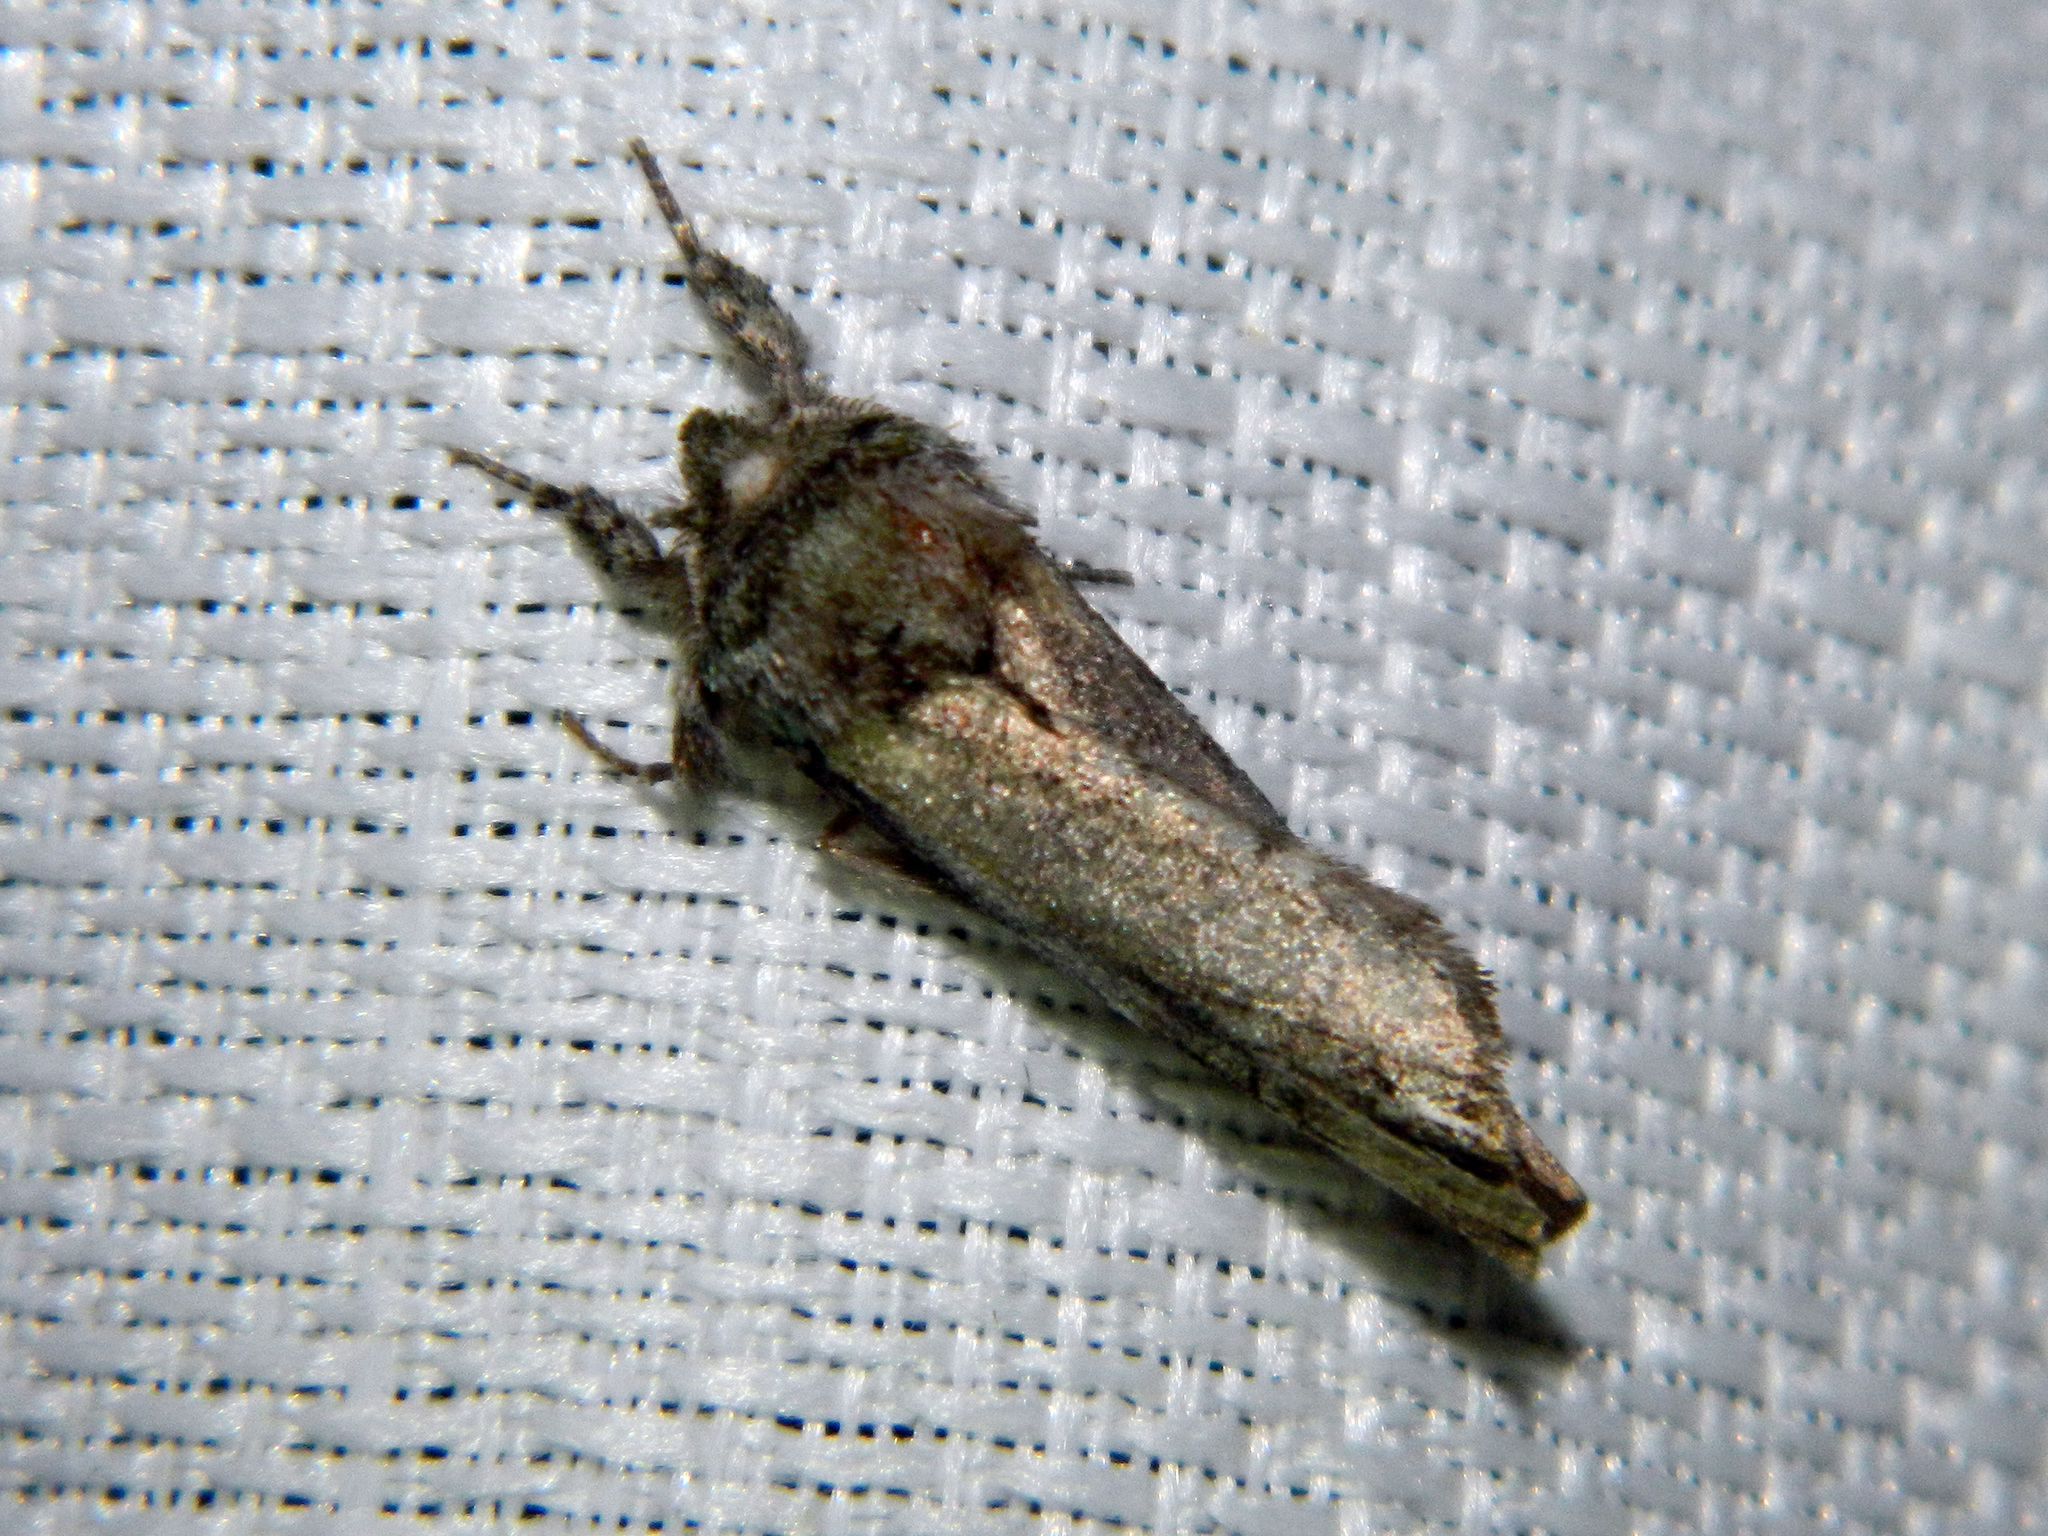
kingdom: Animalia
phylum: Arthropoda
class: Insecta
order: Lepidoptera
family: Notodontidae
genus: Schizura
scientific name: Schizura
